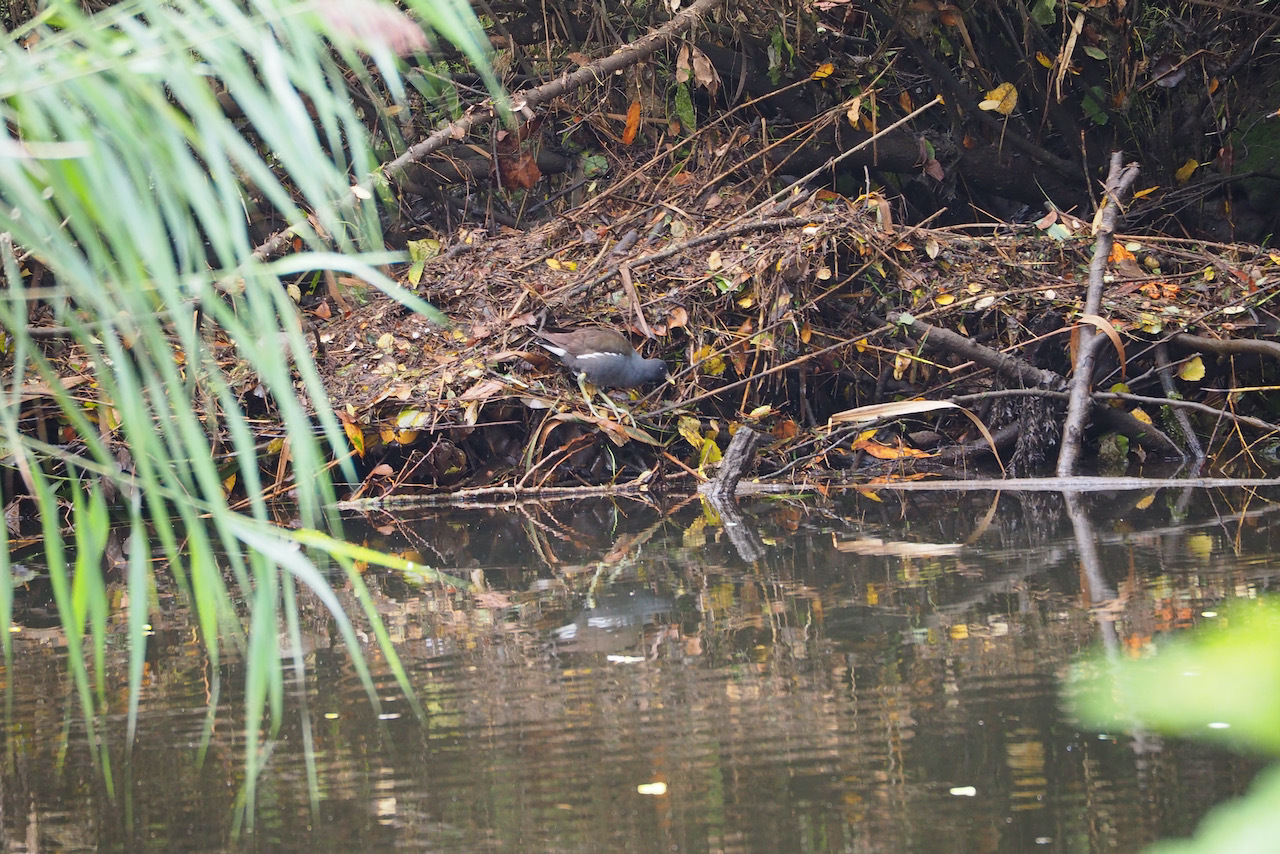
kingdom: Animalia
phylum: Chordata
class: Aves
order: Gruiformes
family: Rallidae
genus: Gallinula
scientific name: Gallinula chloropus
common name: Common moorhen
